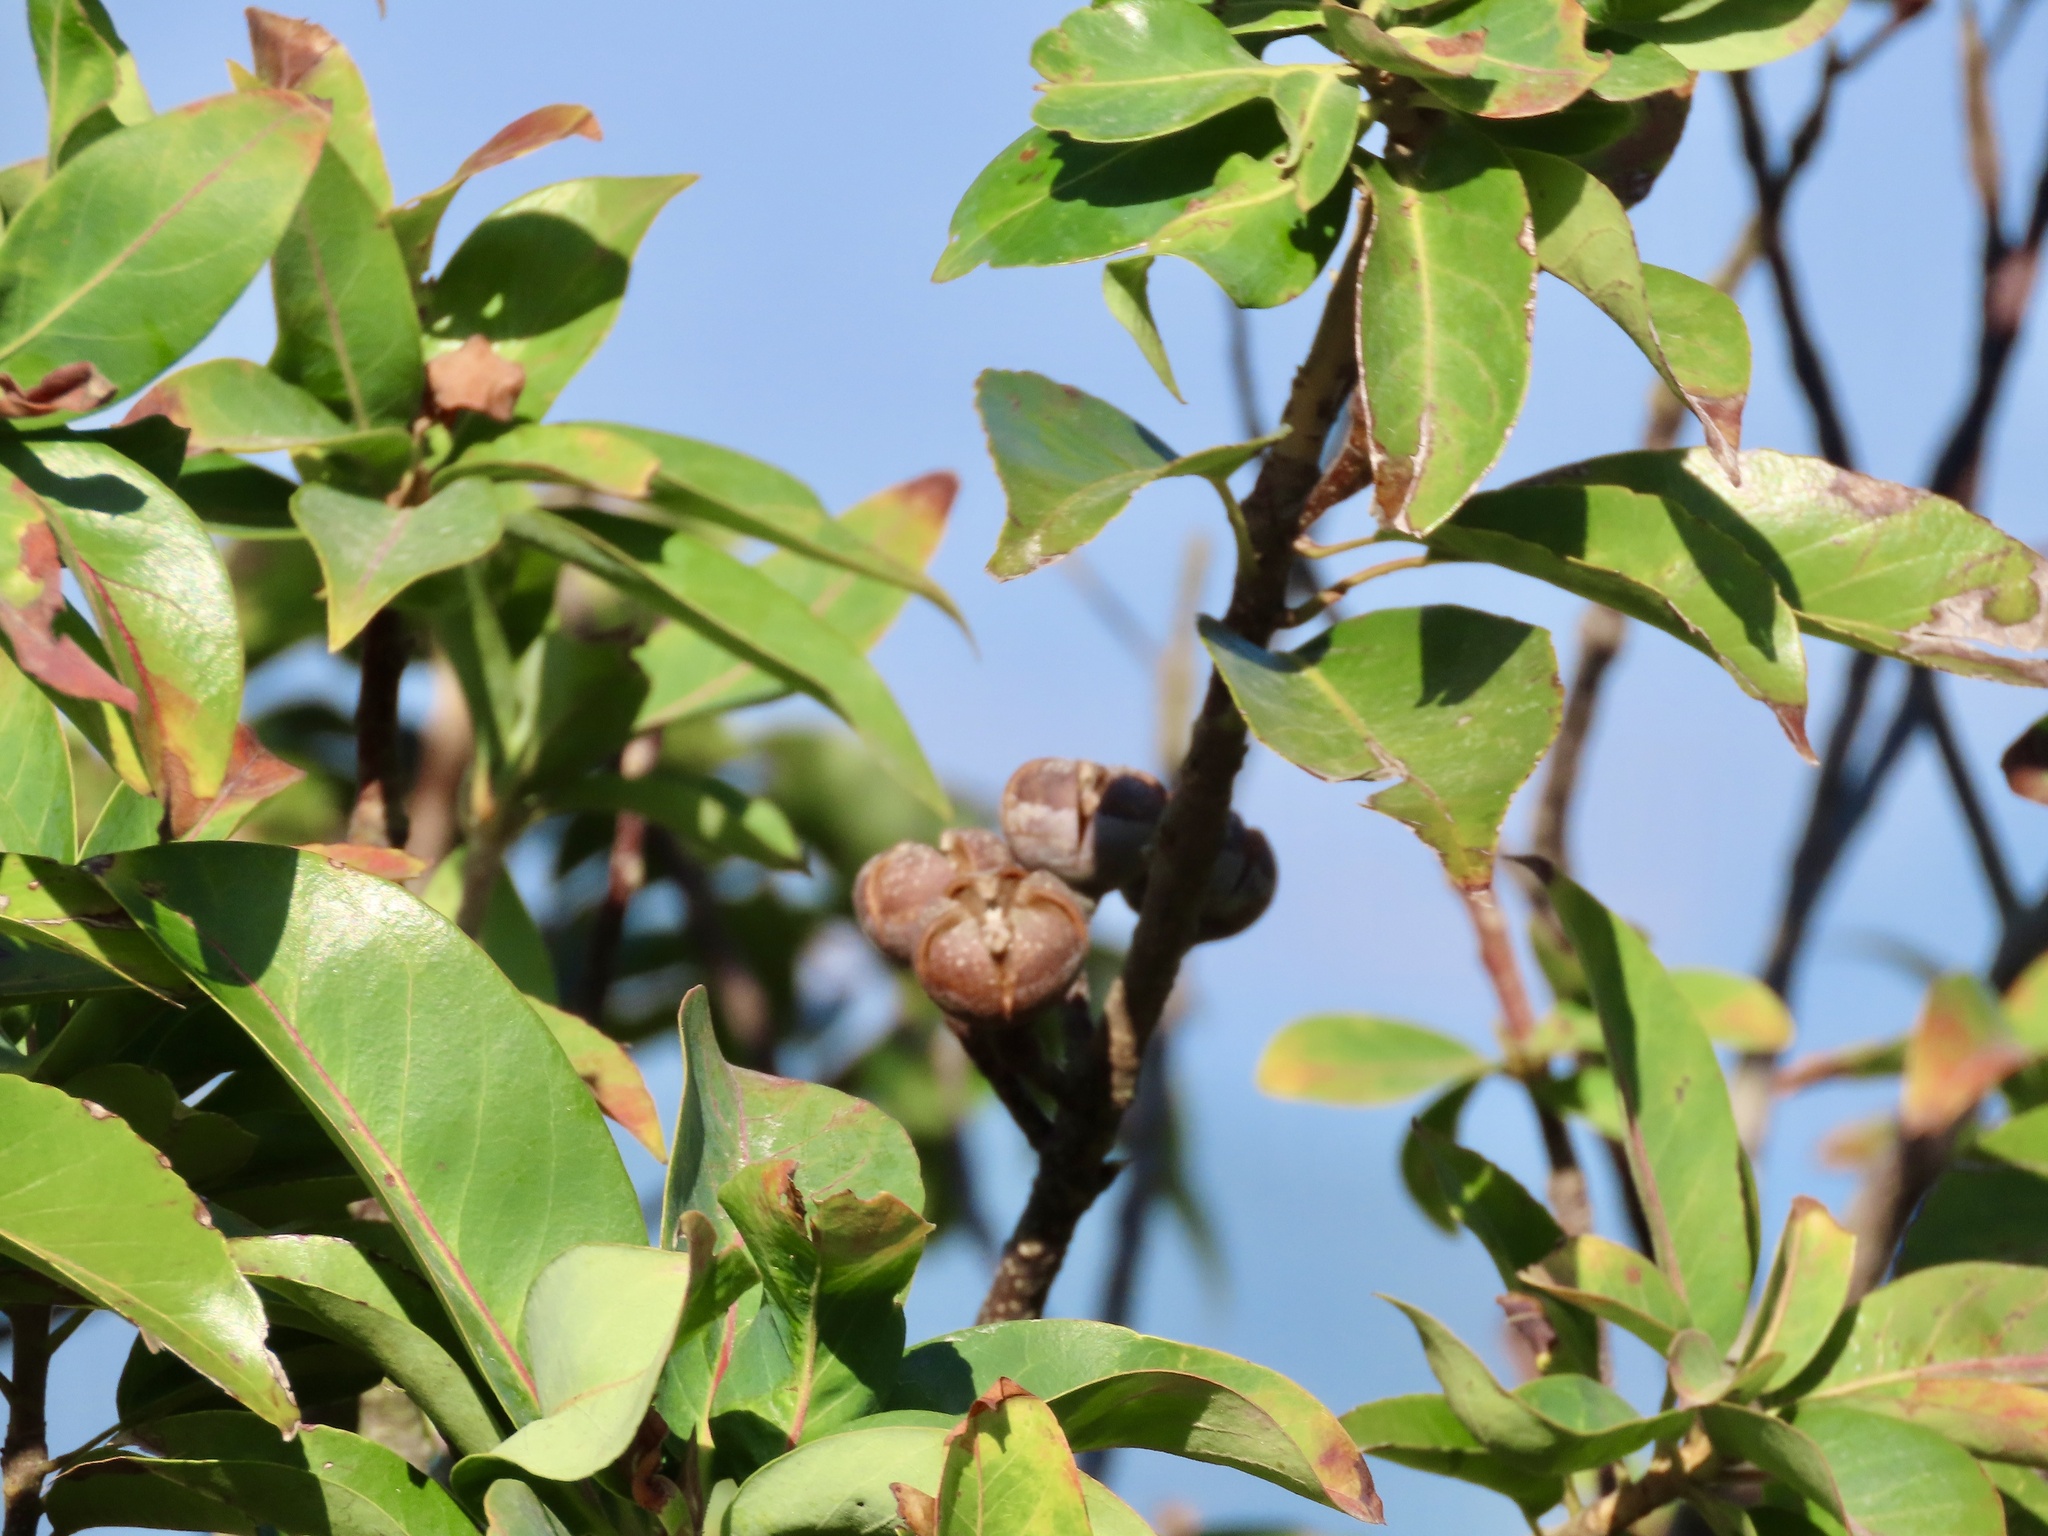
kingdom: Plantae
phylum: Tracheophyta
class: Magnoliopsida
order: Ericales
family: Theaceae
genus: Schima
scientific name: Schima superba
